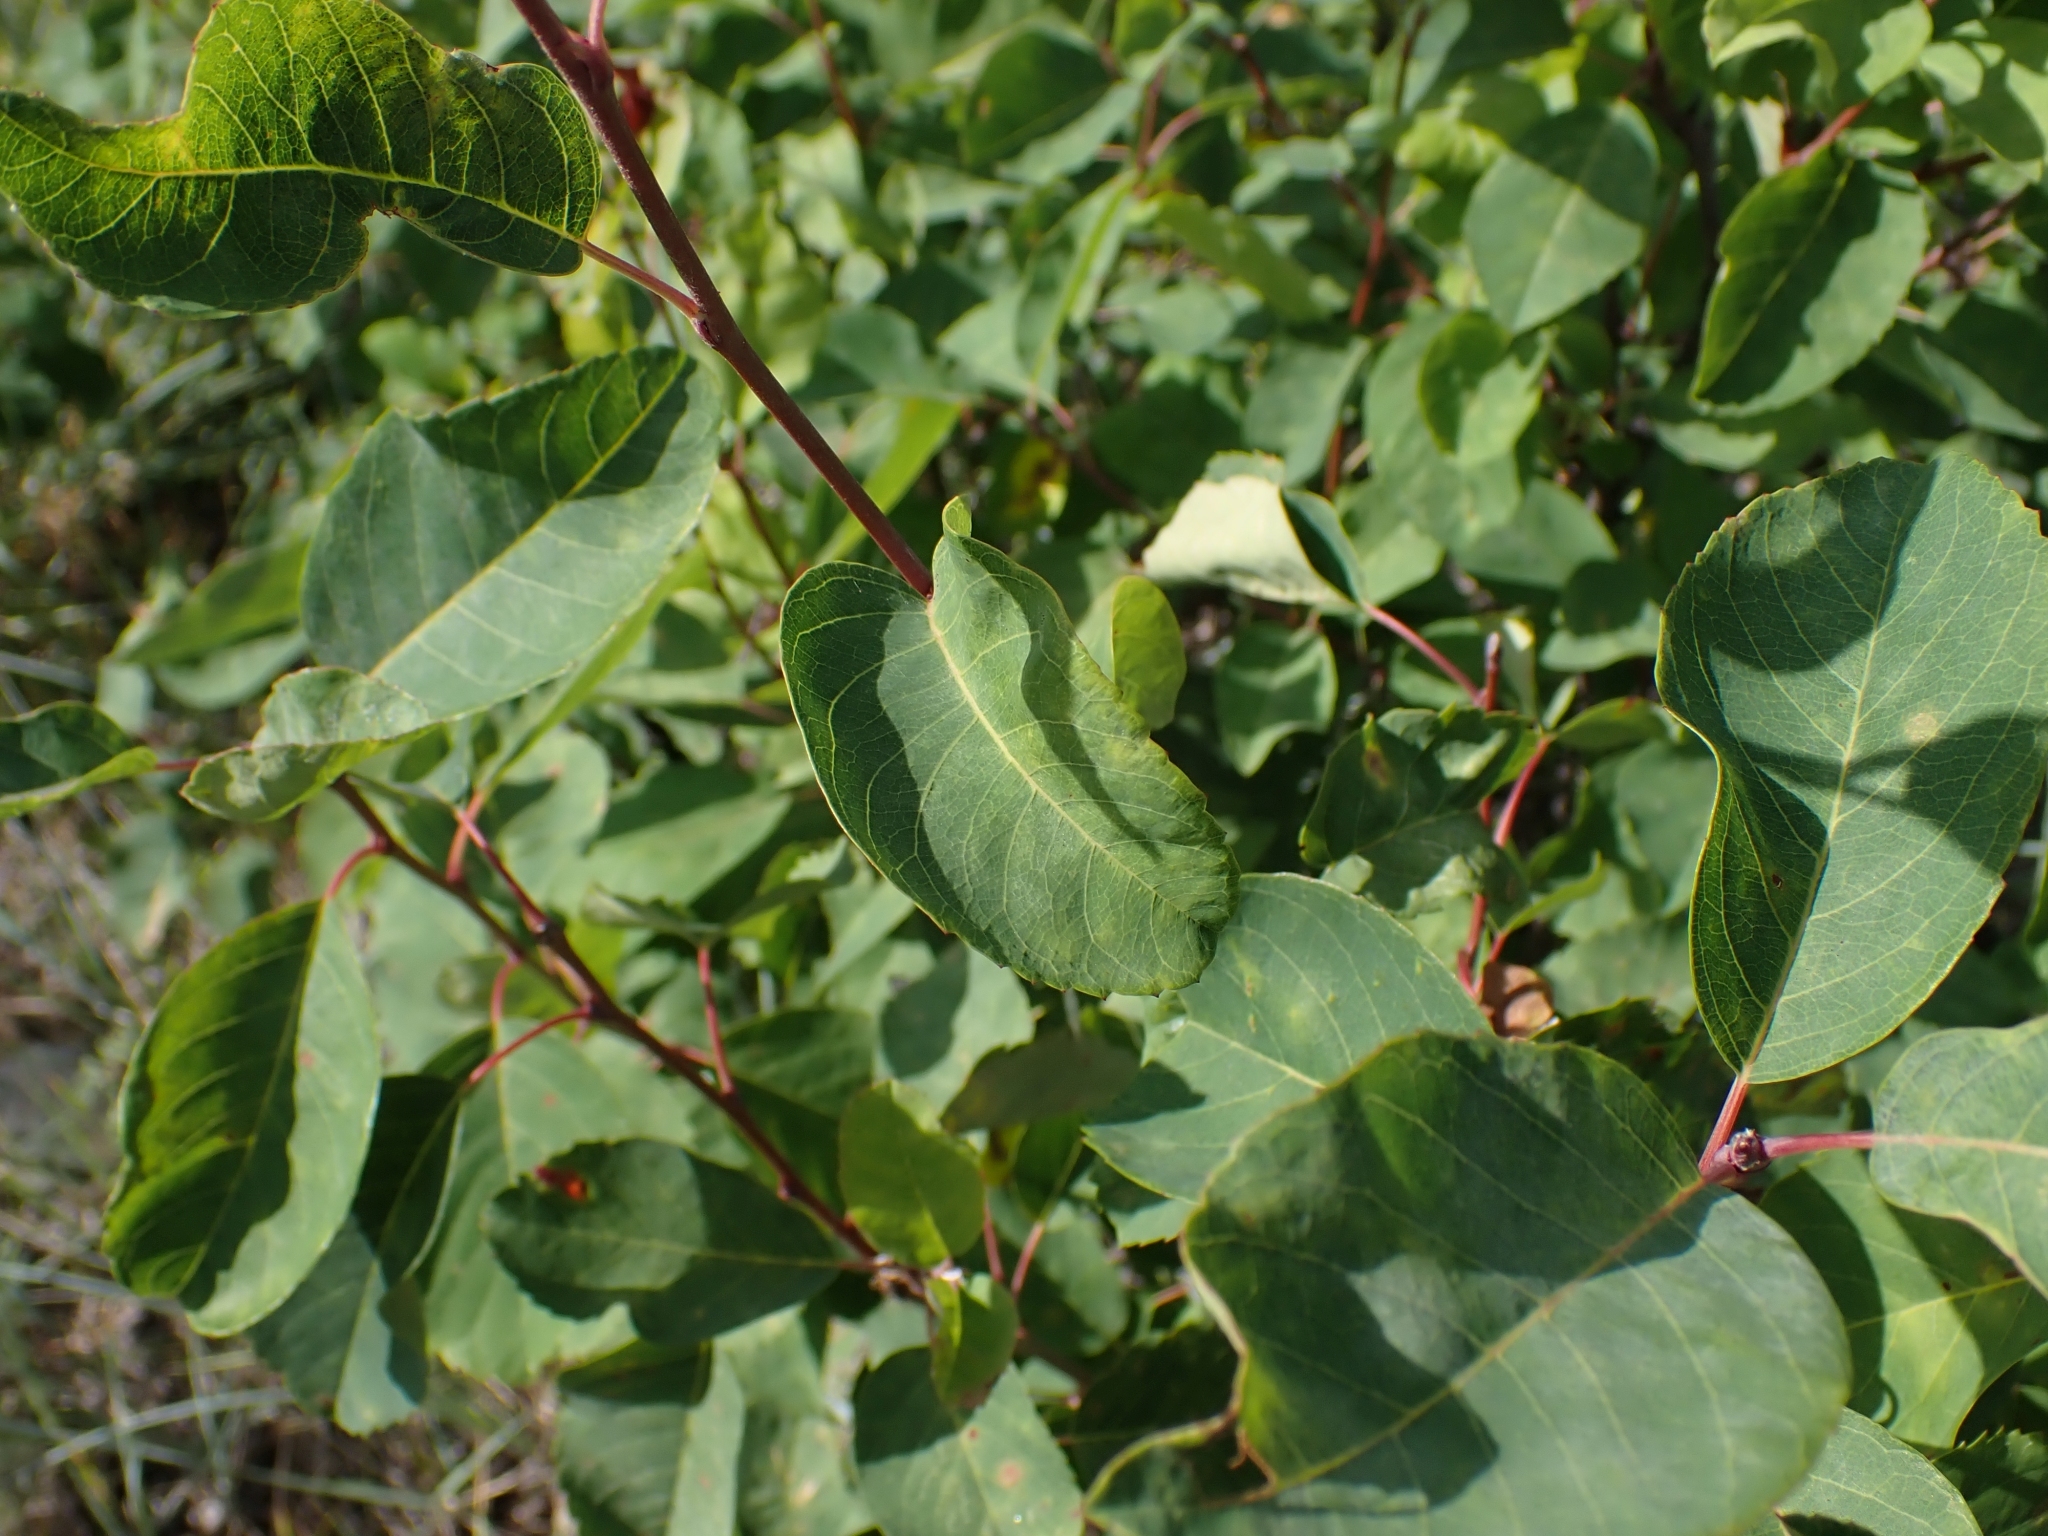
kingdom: Plantae
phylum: Tracheophyta
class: Magnoliopsida
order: Rosales
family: Rosaceae
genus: Amelanchier
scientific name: Amelanchier alnifolia
